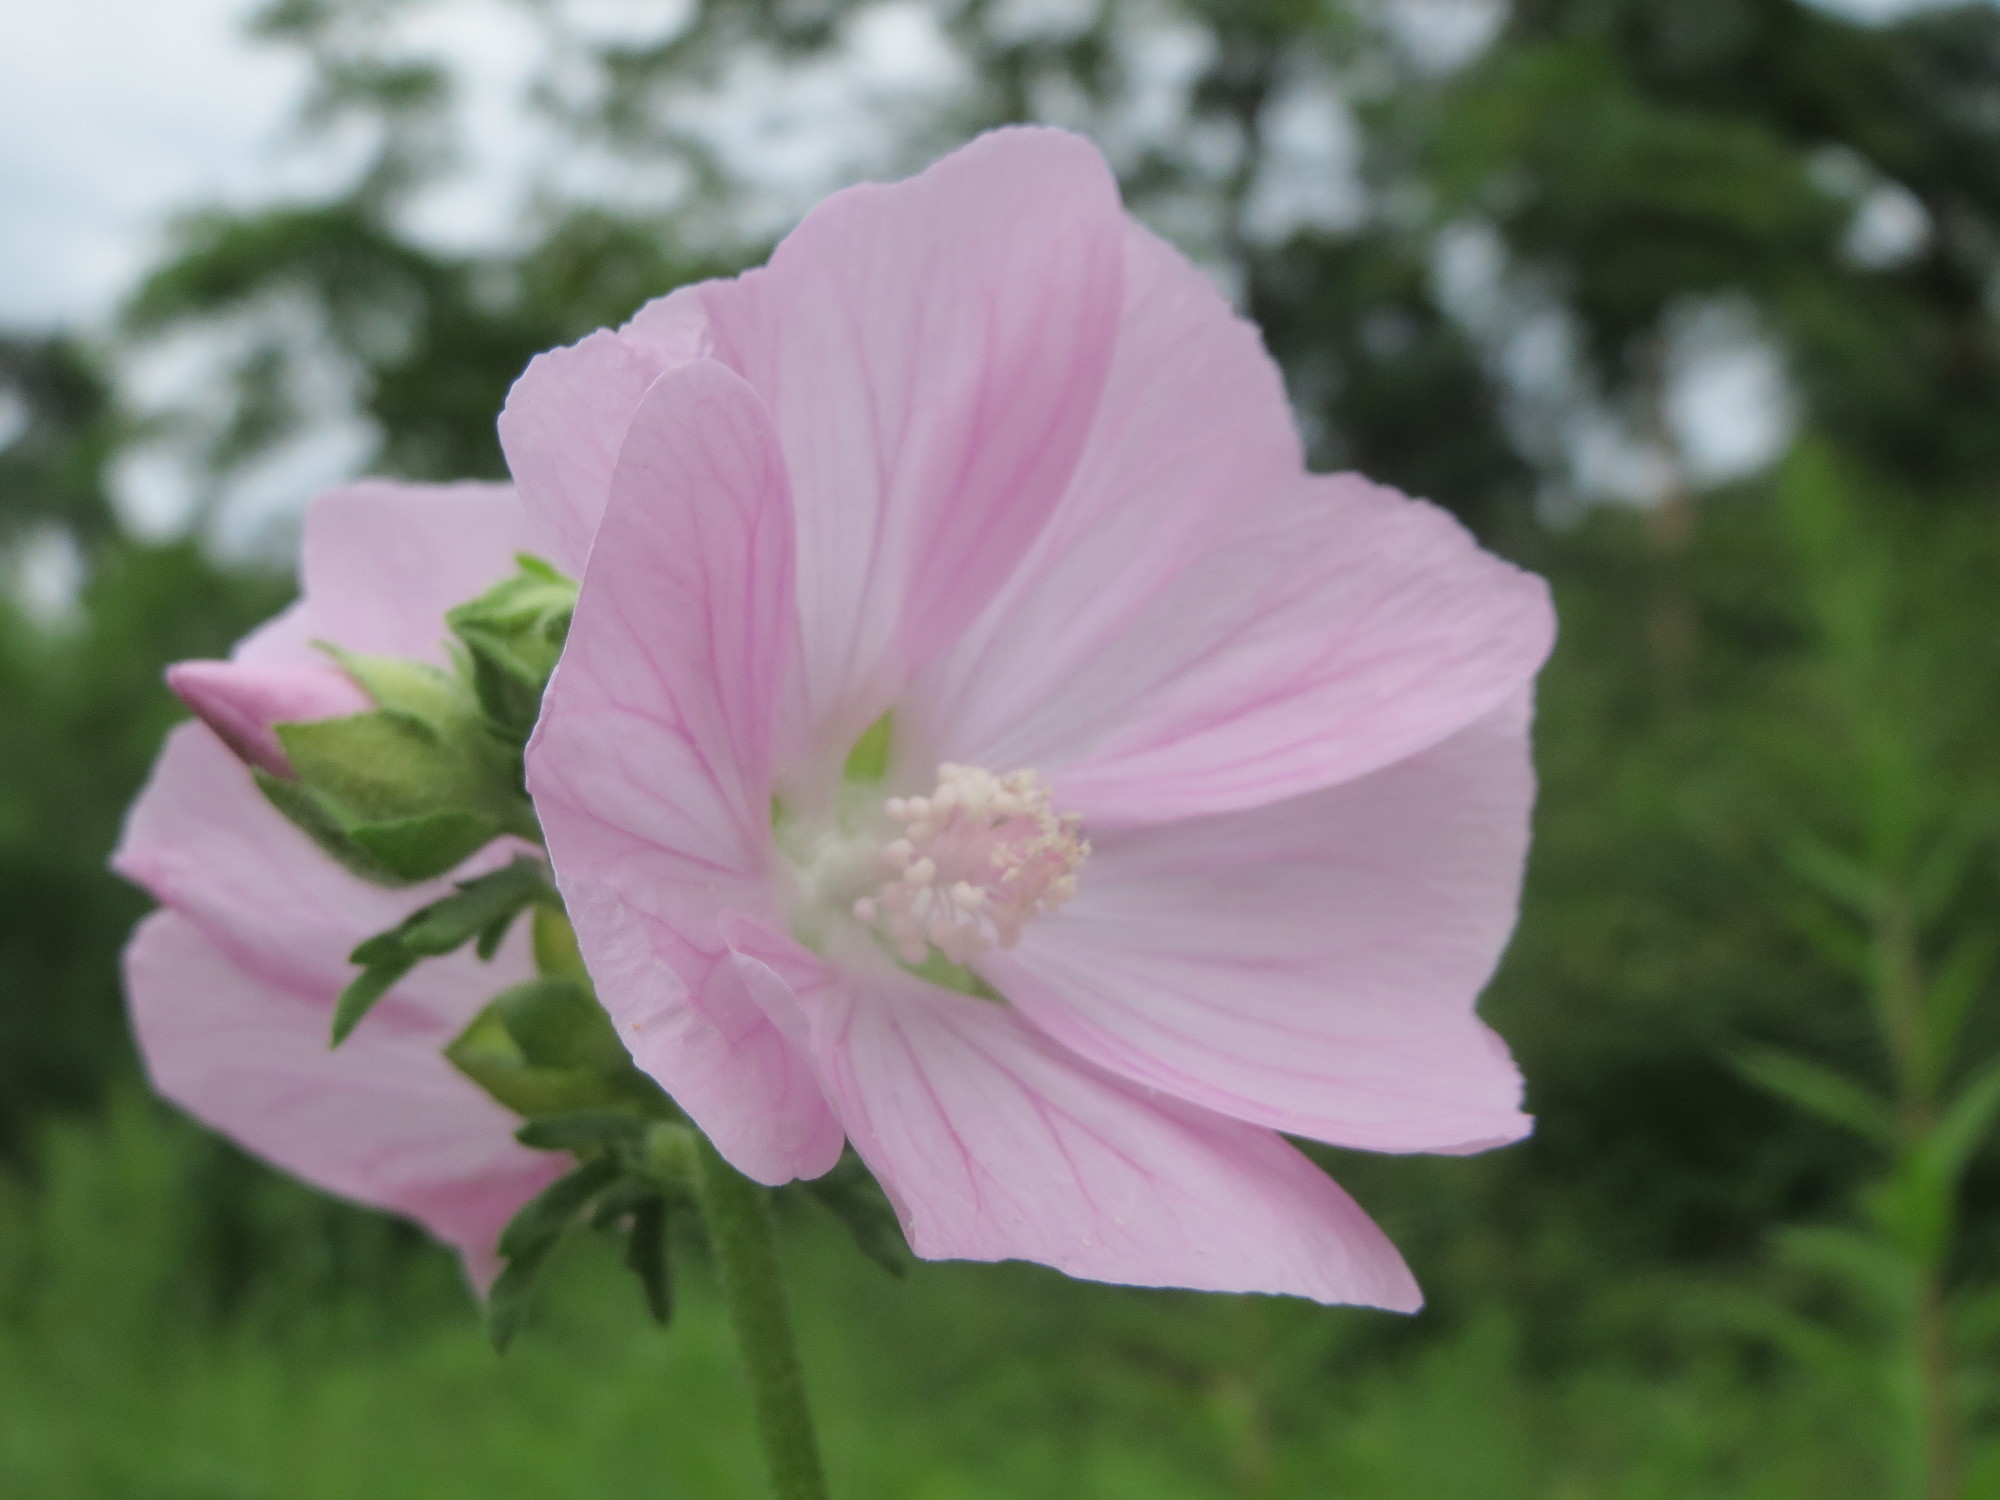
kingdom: Plantae
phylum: Tracheophyta
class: Magnoliopsida
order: Malvales
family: Malvaceae
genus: Malva
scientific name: Malva alcea
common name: Greater musk-mallow
